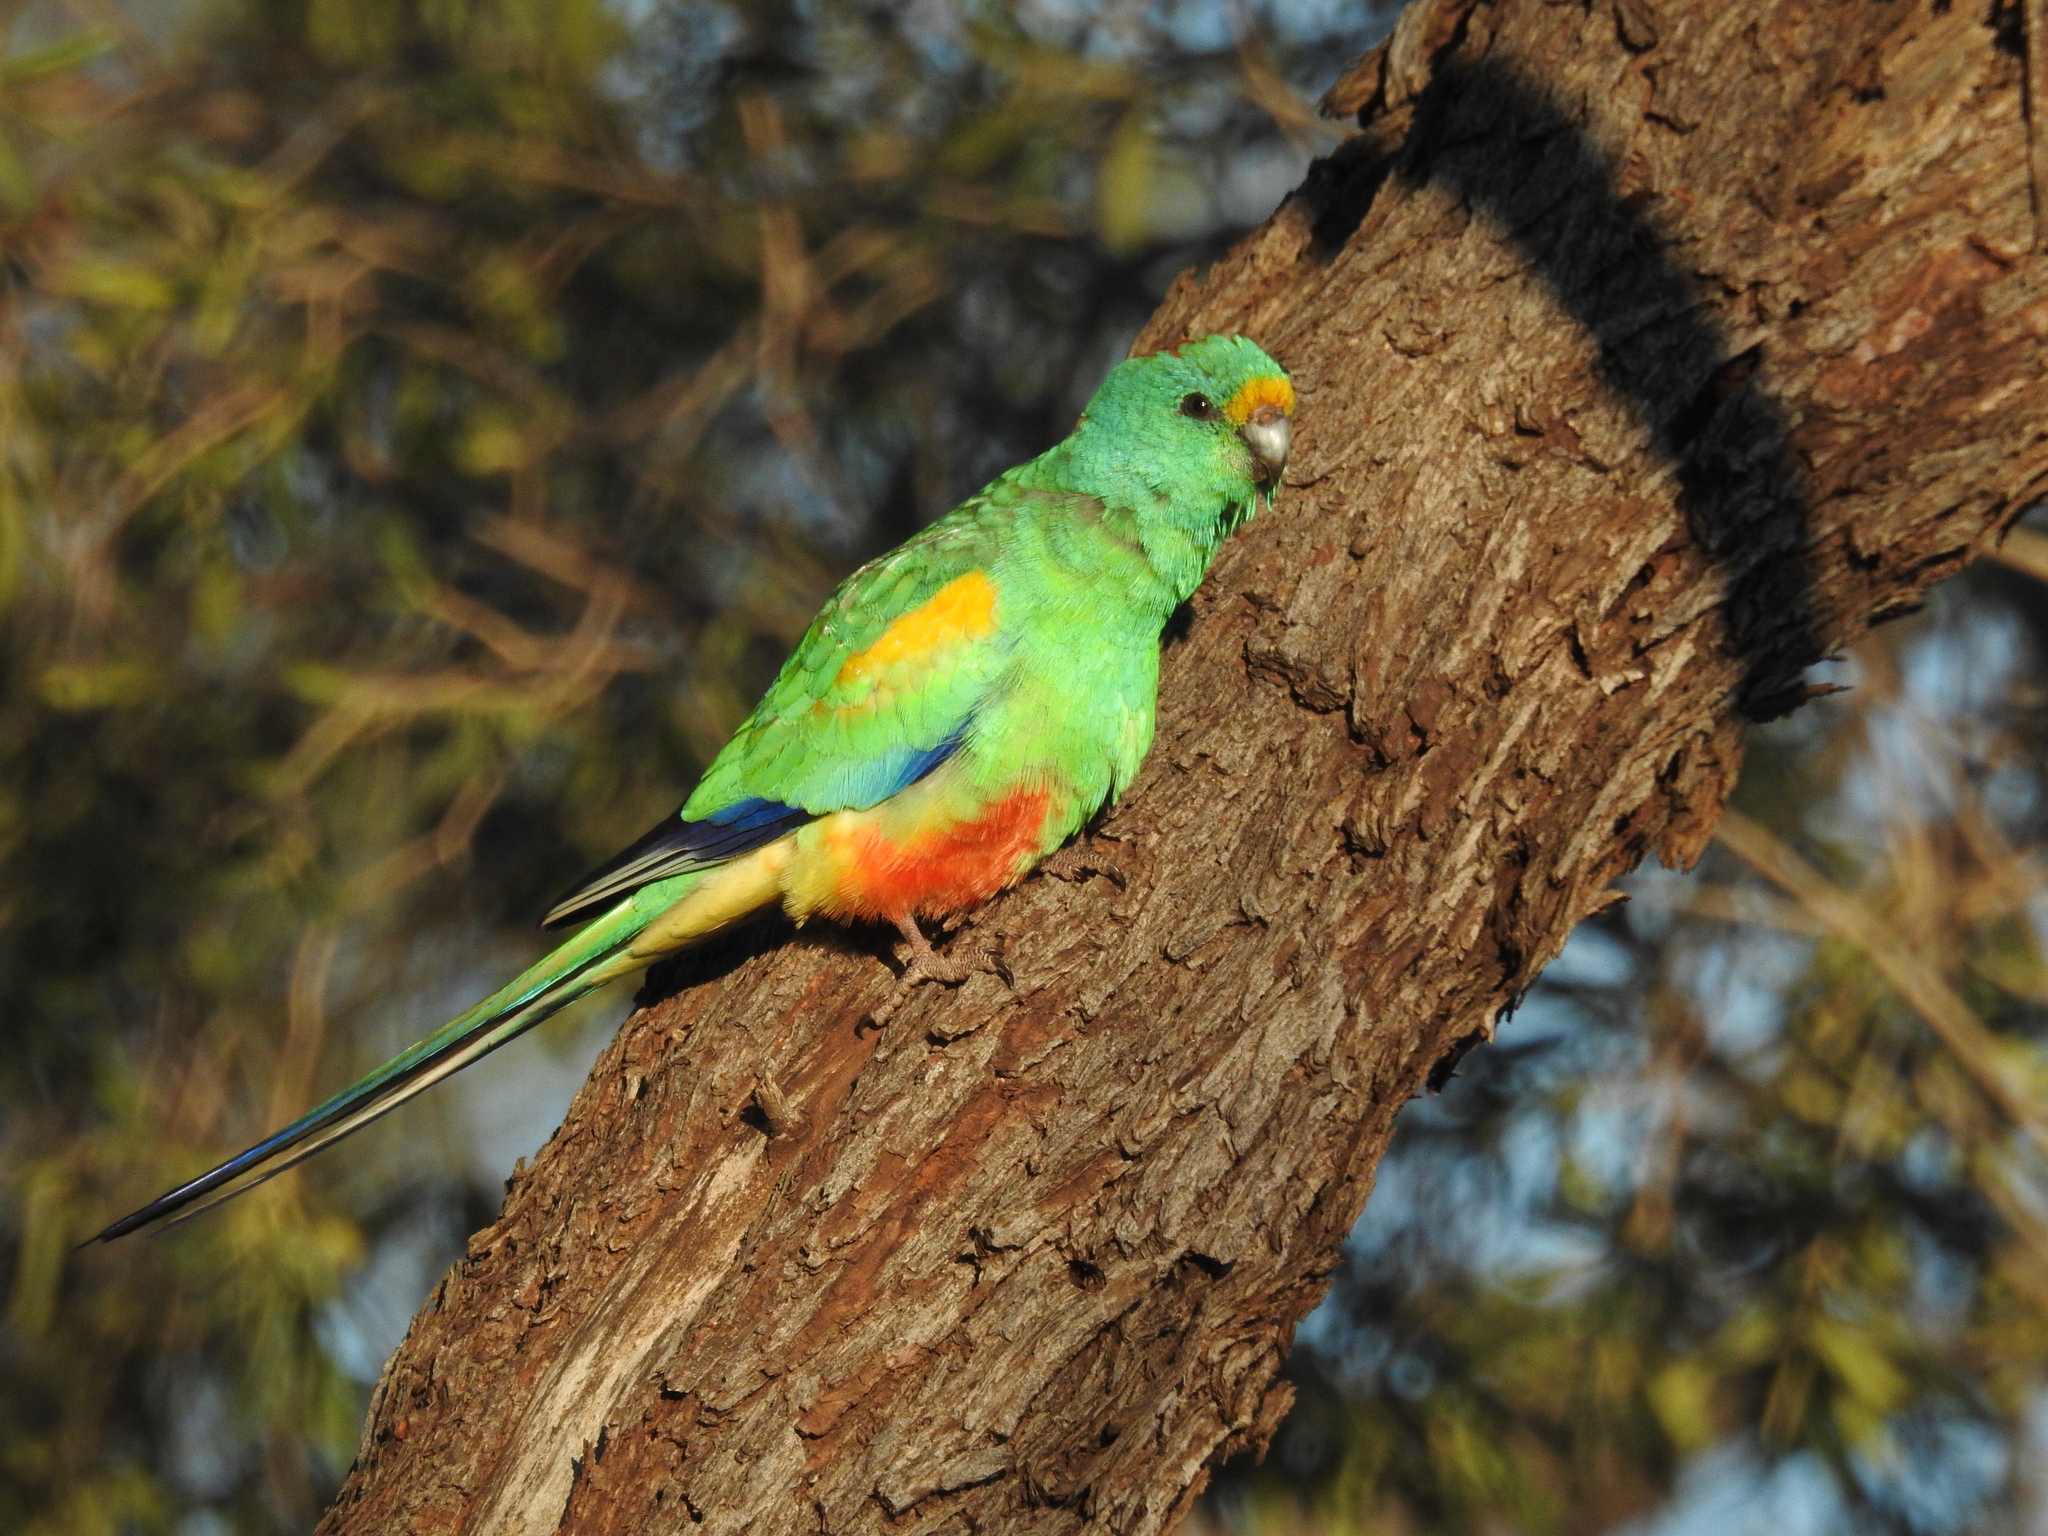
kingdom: Animalia
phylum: Chordata
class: Aves
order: Psittaciformes
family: Psittaculidae
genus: Psephotellus
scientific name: Psephotellus varius
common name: Mulga parrot
